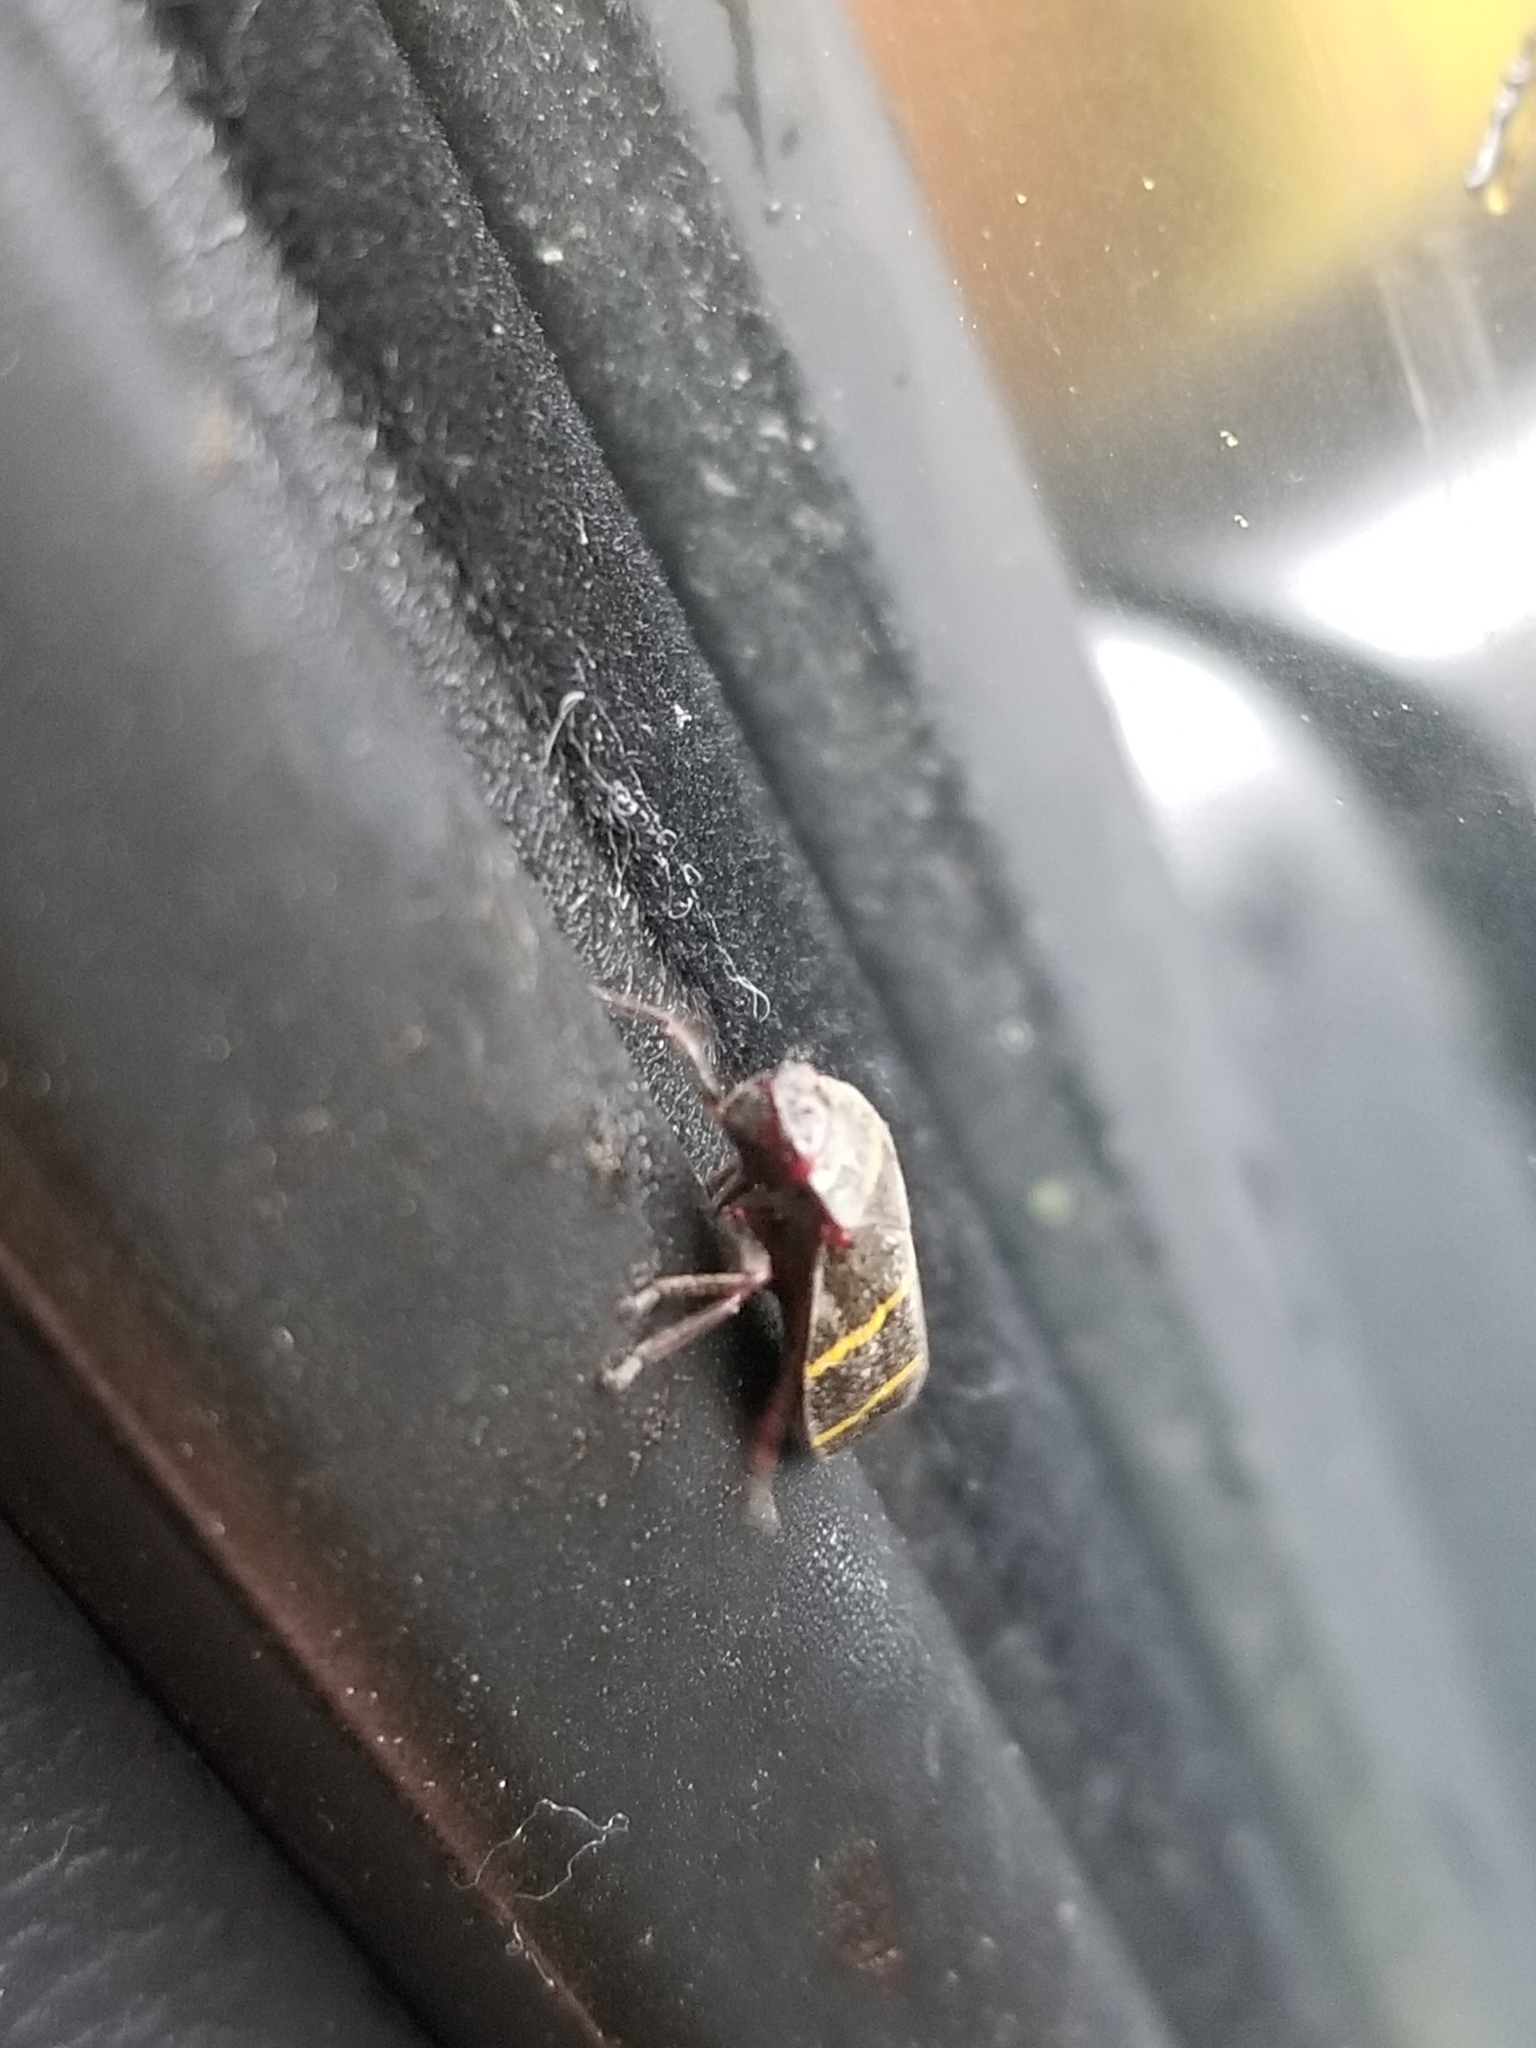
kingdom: Animalia
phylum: Arthropoda
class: Insecta
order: Hemiptera
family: Cercopidae
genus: Prosapia
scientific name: Prosapia bicincta
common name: Twolined spittlebug
